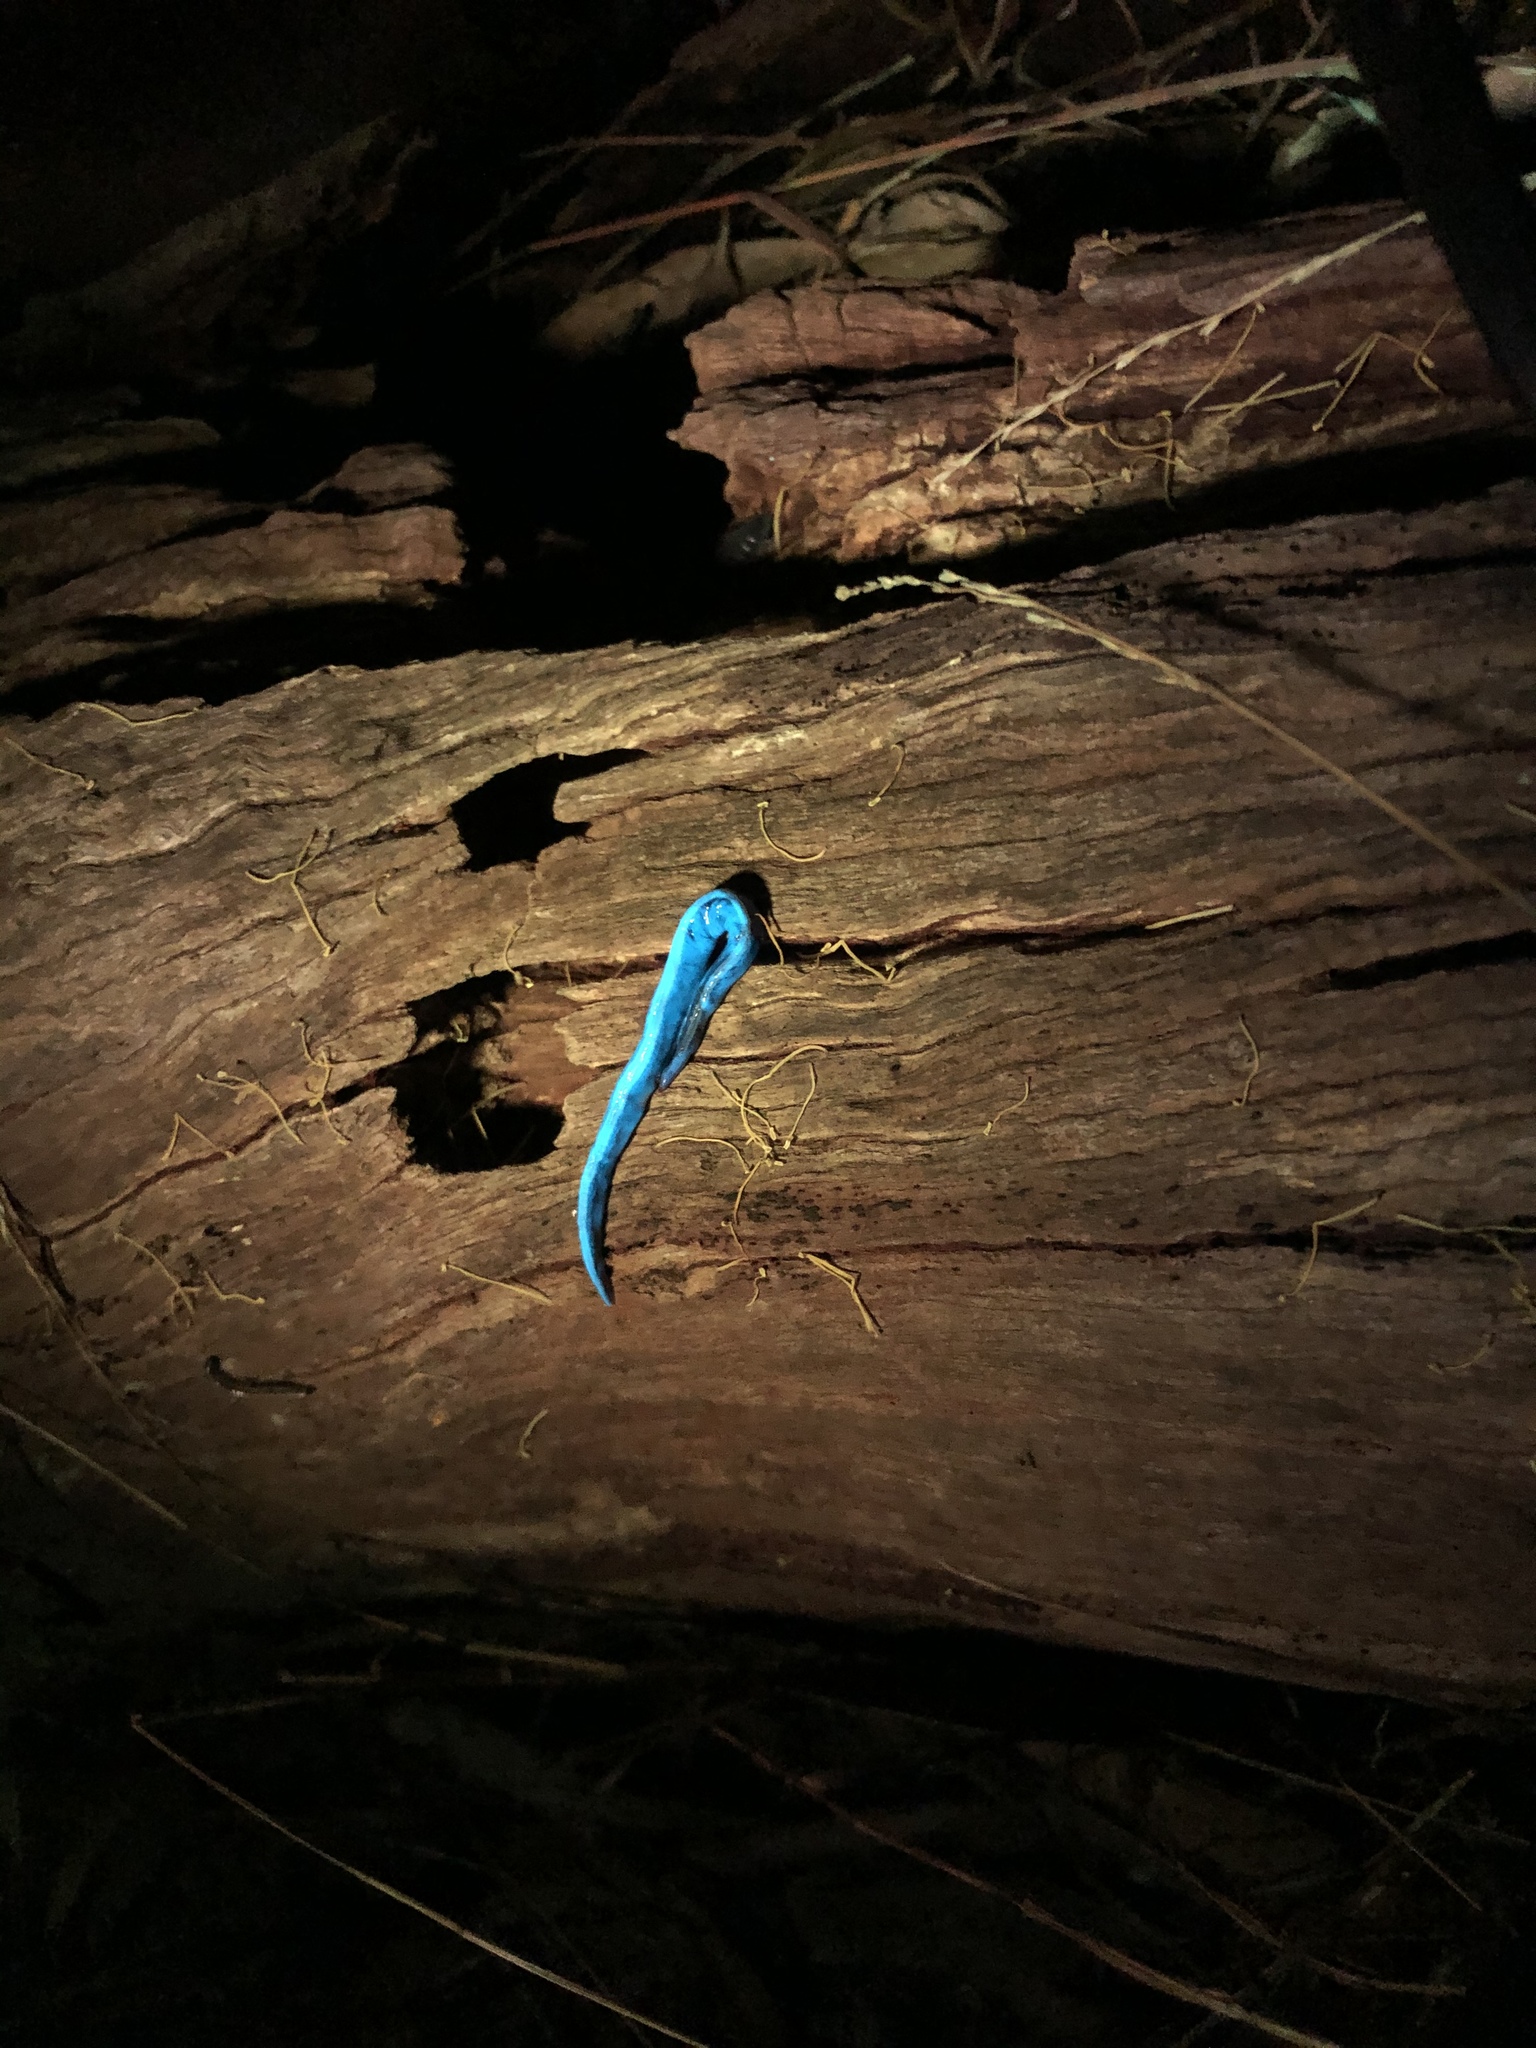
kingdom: Animalia
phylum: Platyhelminthes
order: Tricladida
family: Geoplanidae
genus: Caenoplana
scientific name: Caenoplana variegata
